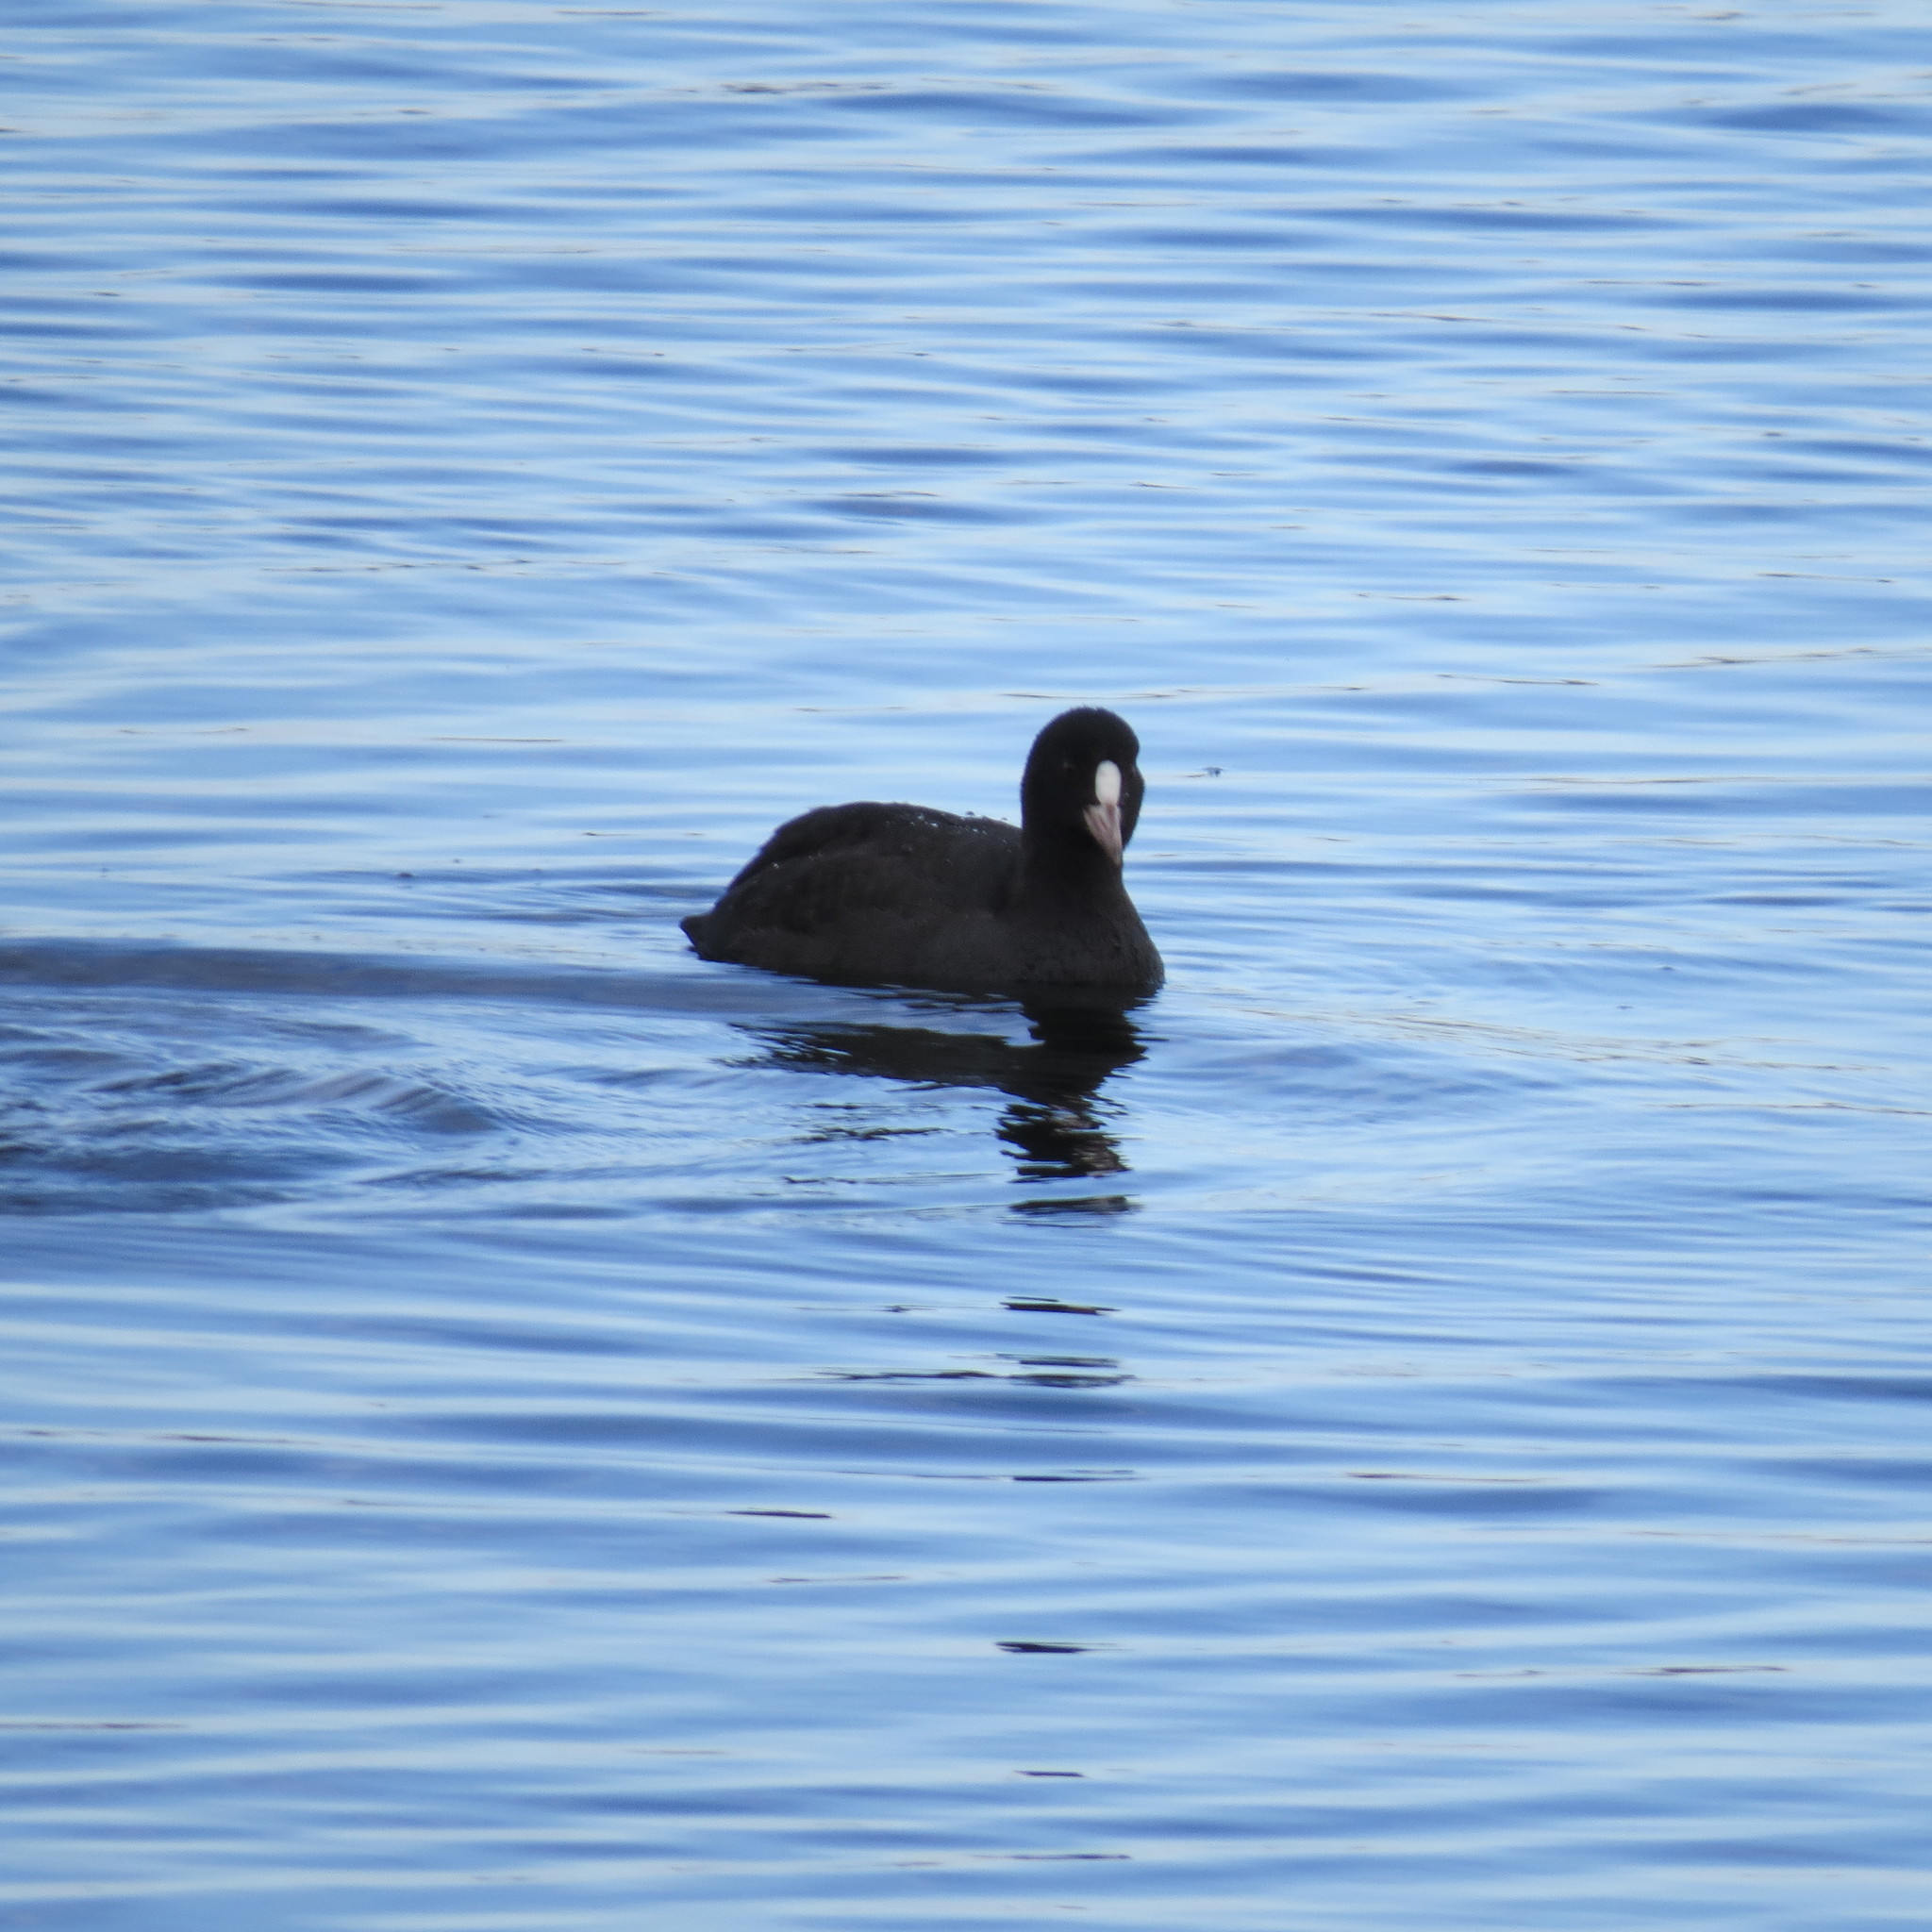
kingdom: Animalia
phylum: Chordata
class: Aves
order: Gruiformes
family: Rallidae
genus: Fulica
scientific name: Fulica atra
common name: Eurasian coot
